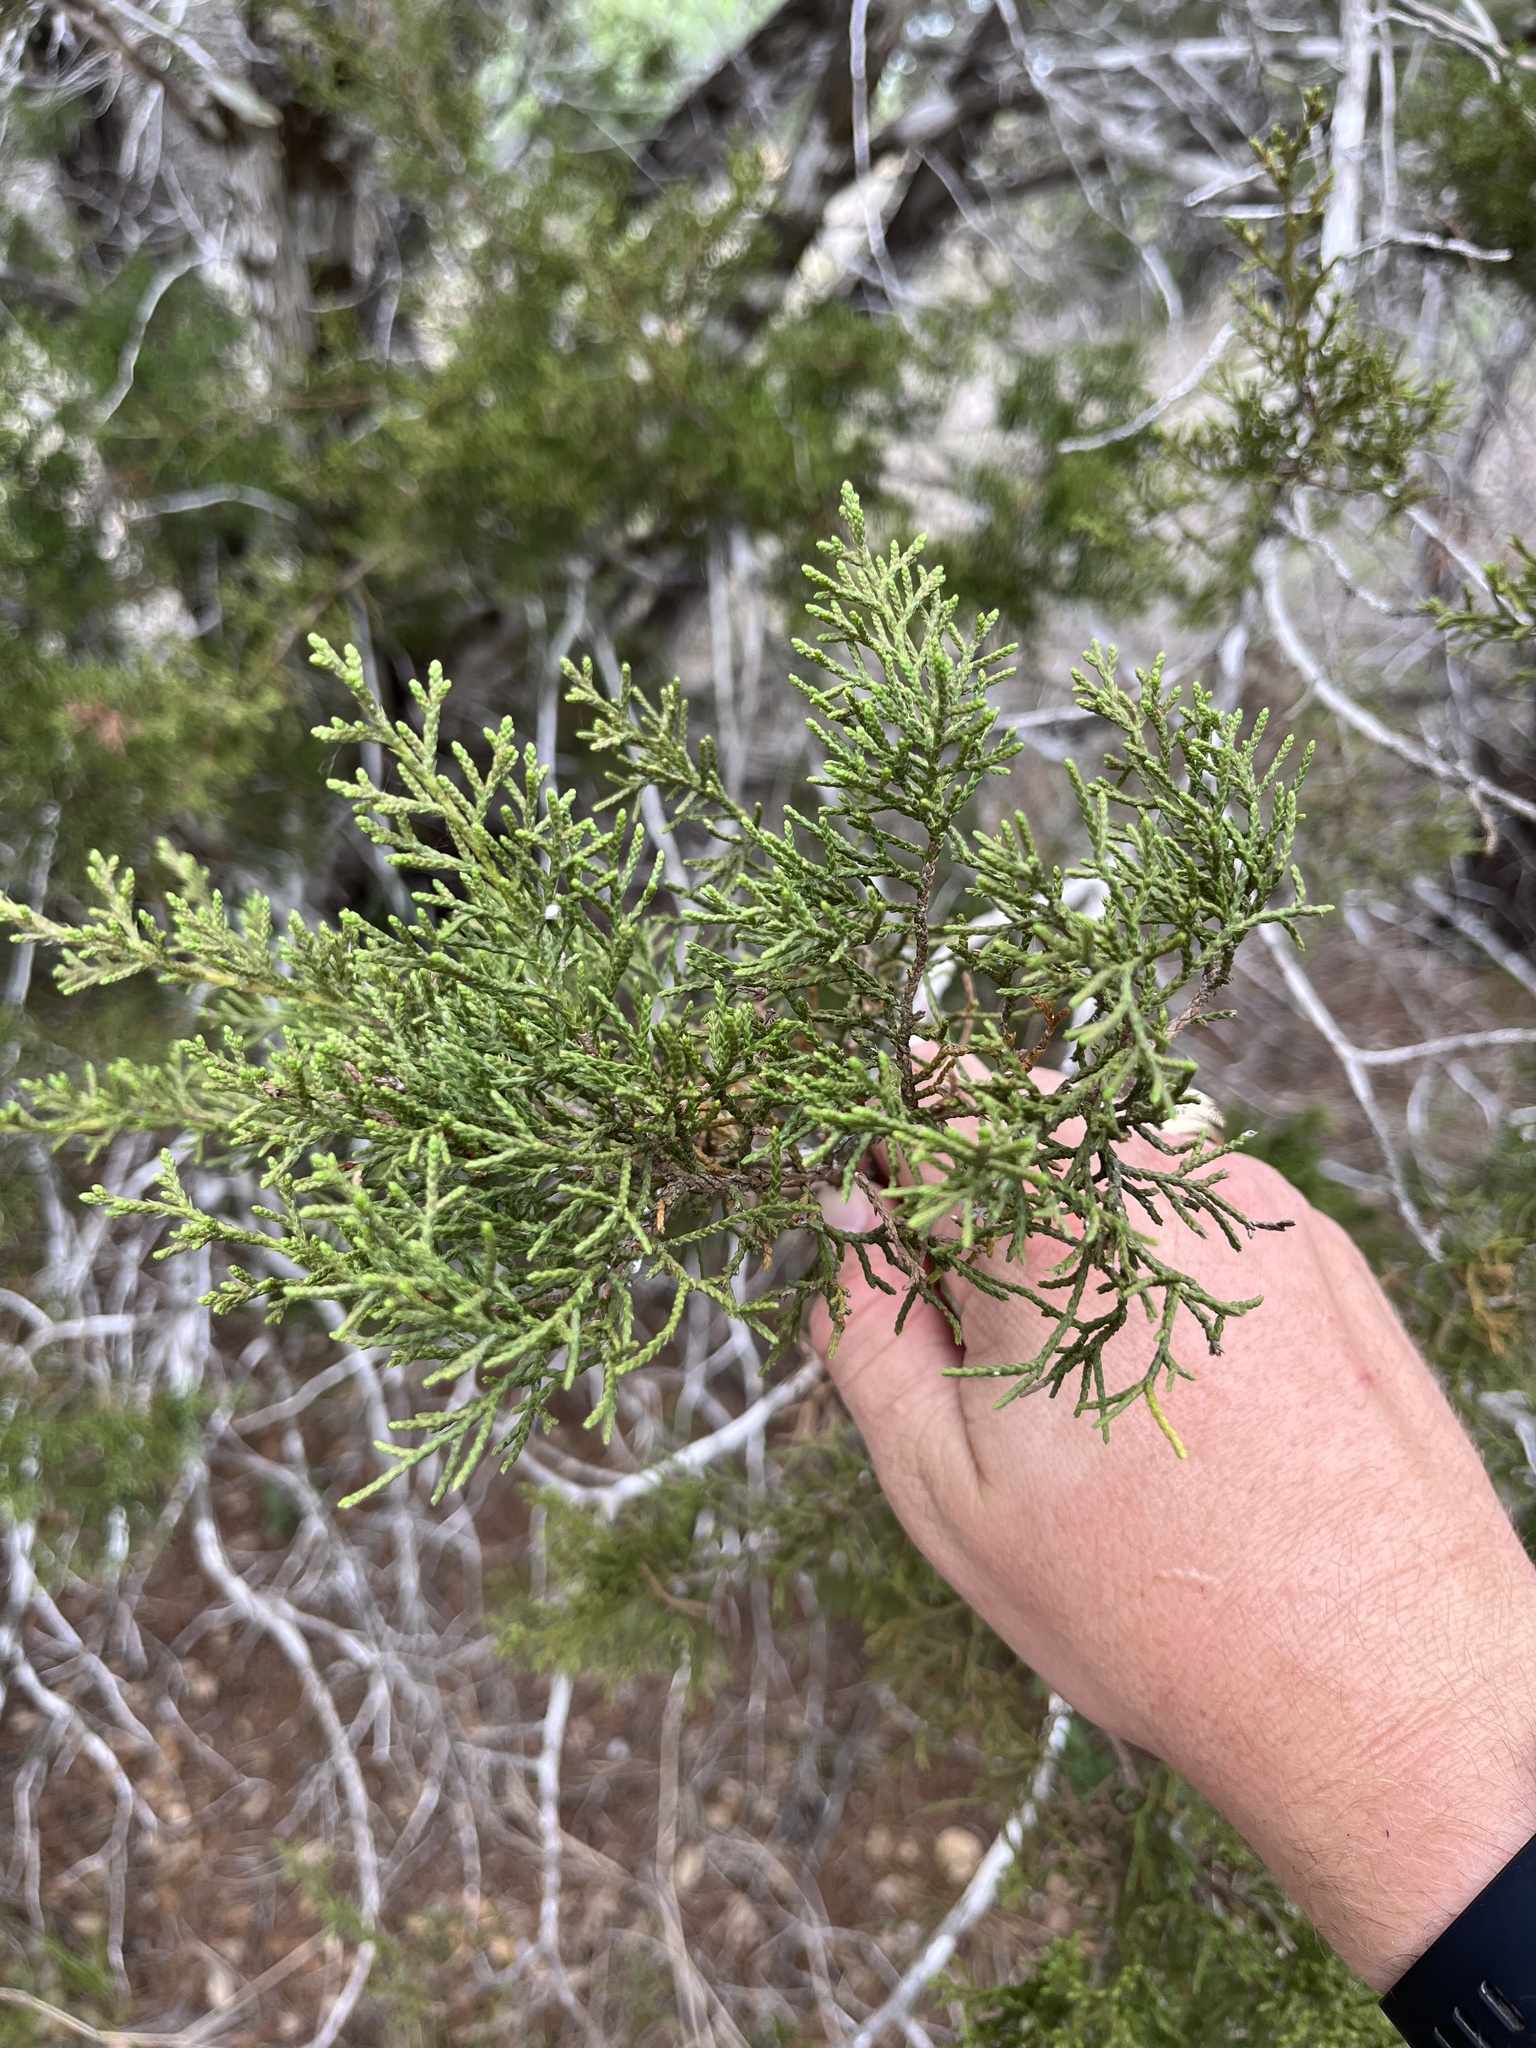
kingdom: Plantae
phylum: Tracheophyta
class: Pinopsida
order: Pinales
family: Cupressaceae
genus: Juniperus
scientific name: Juniperus ashei
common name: Mexican juniper
